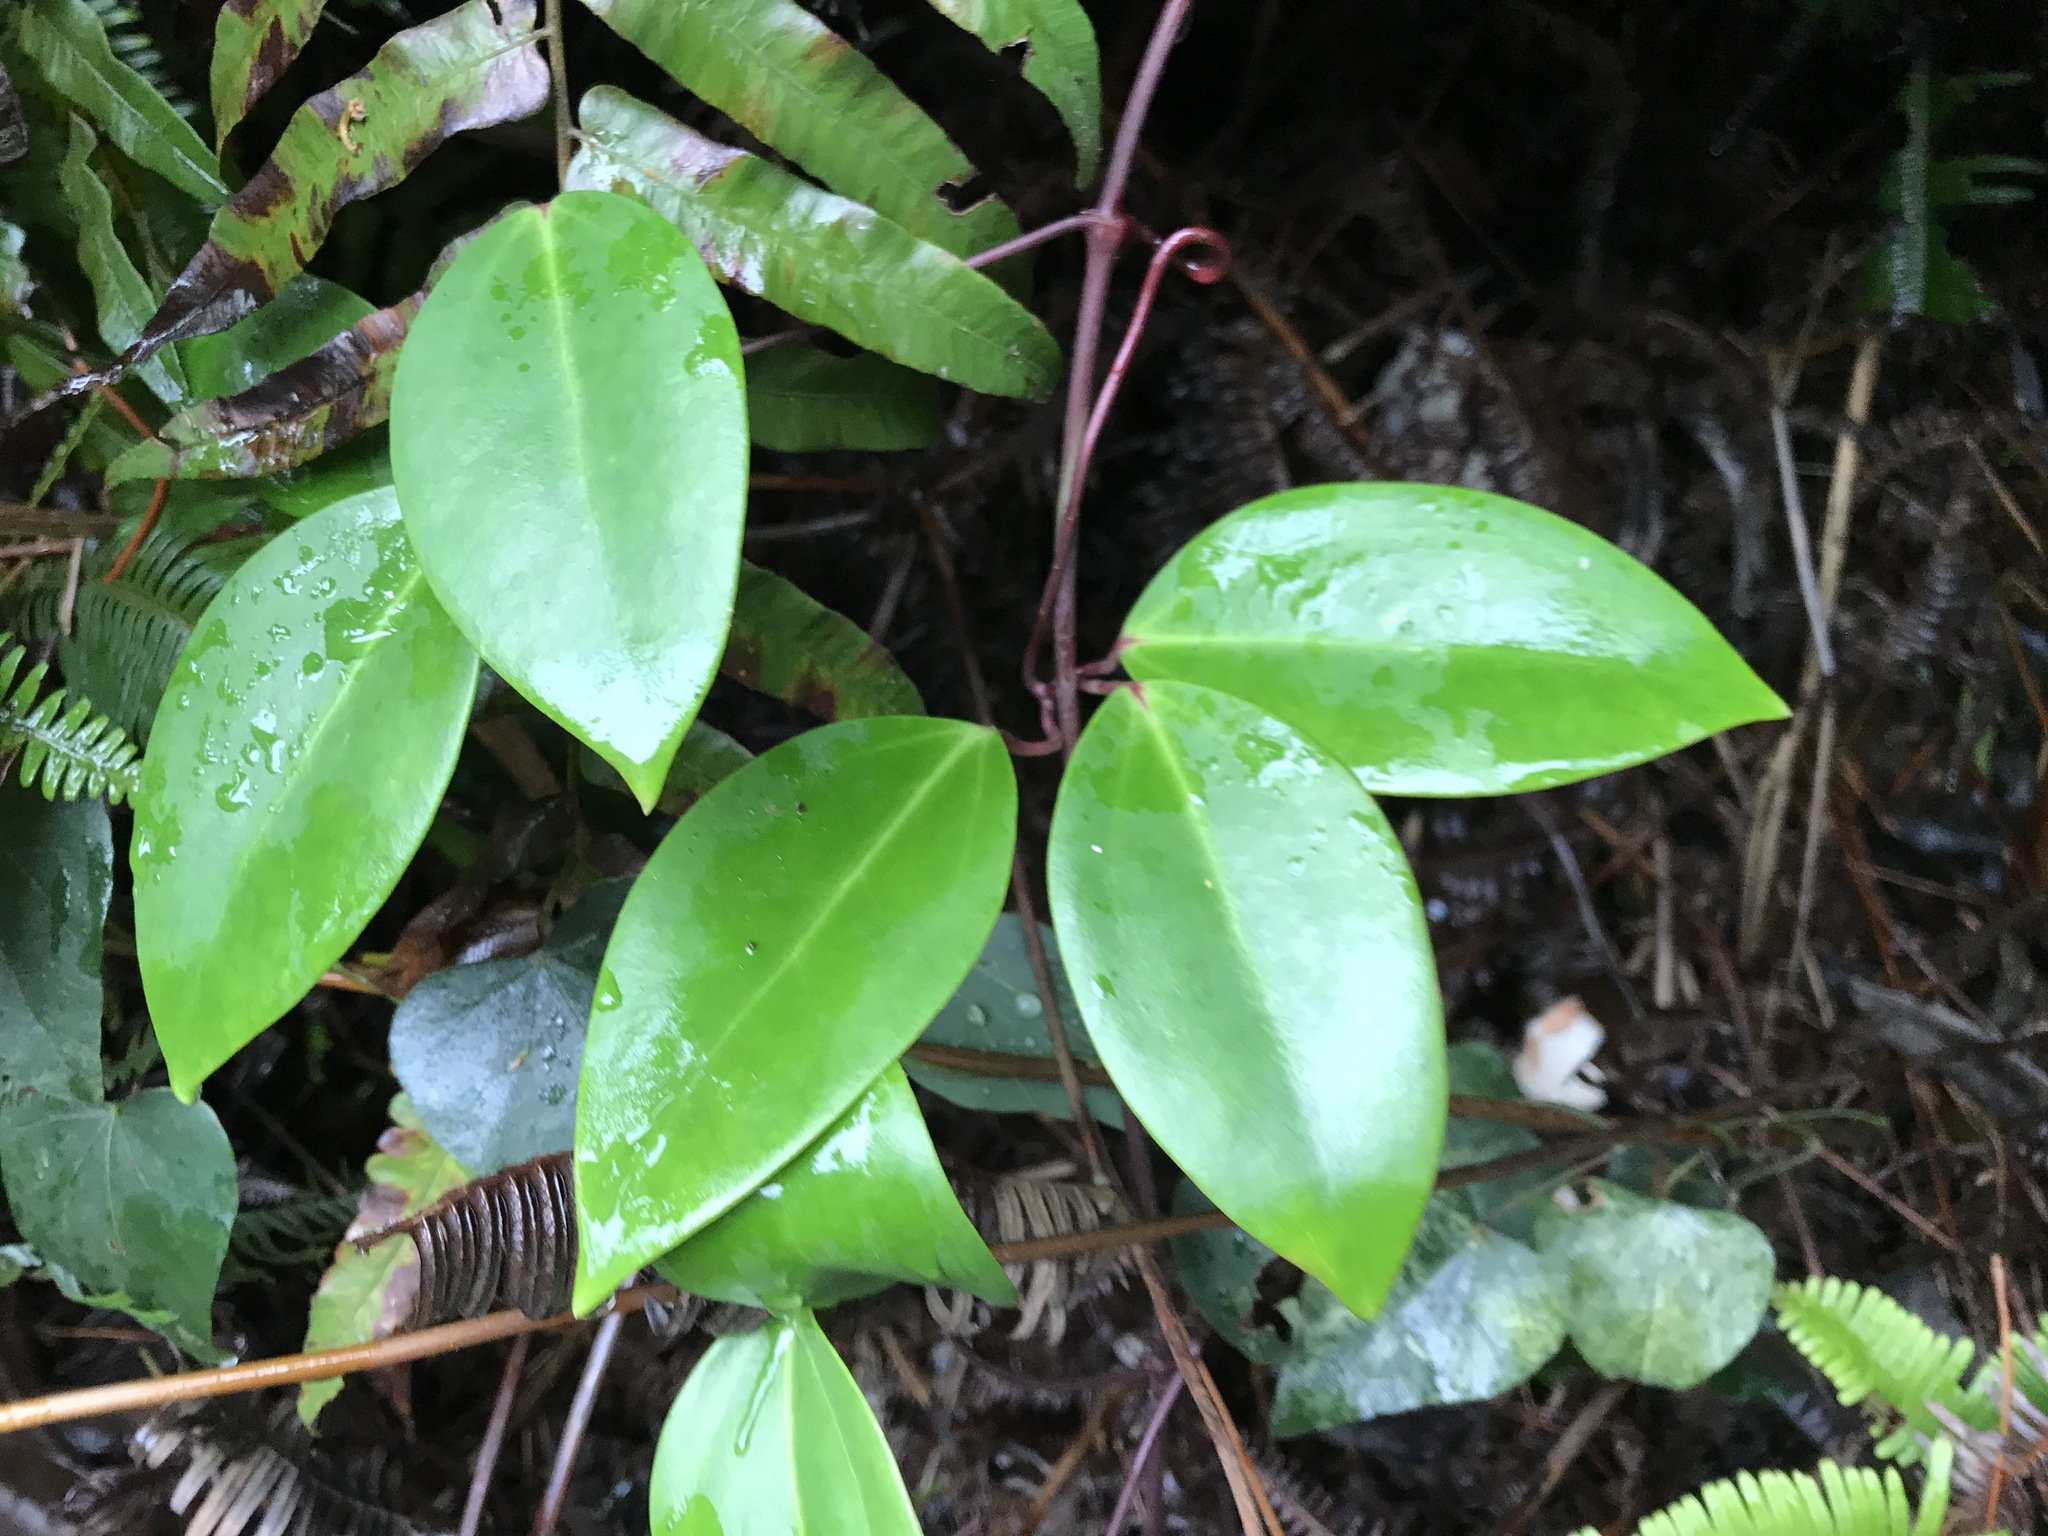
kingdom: Plantae
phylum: Tracheophyta
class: Magnoliopsida
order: Ranunculales
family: Ranunculaceae
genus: Clematis
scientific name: Clematis crassifolia
